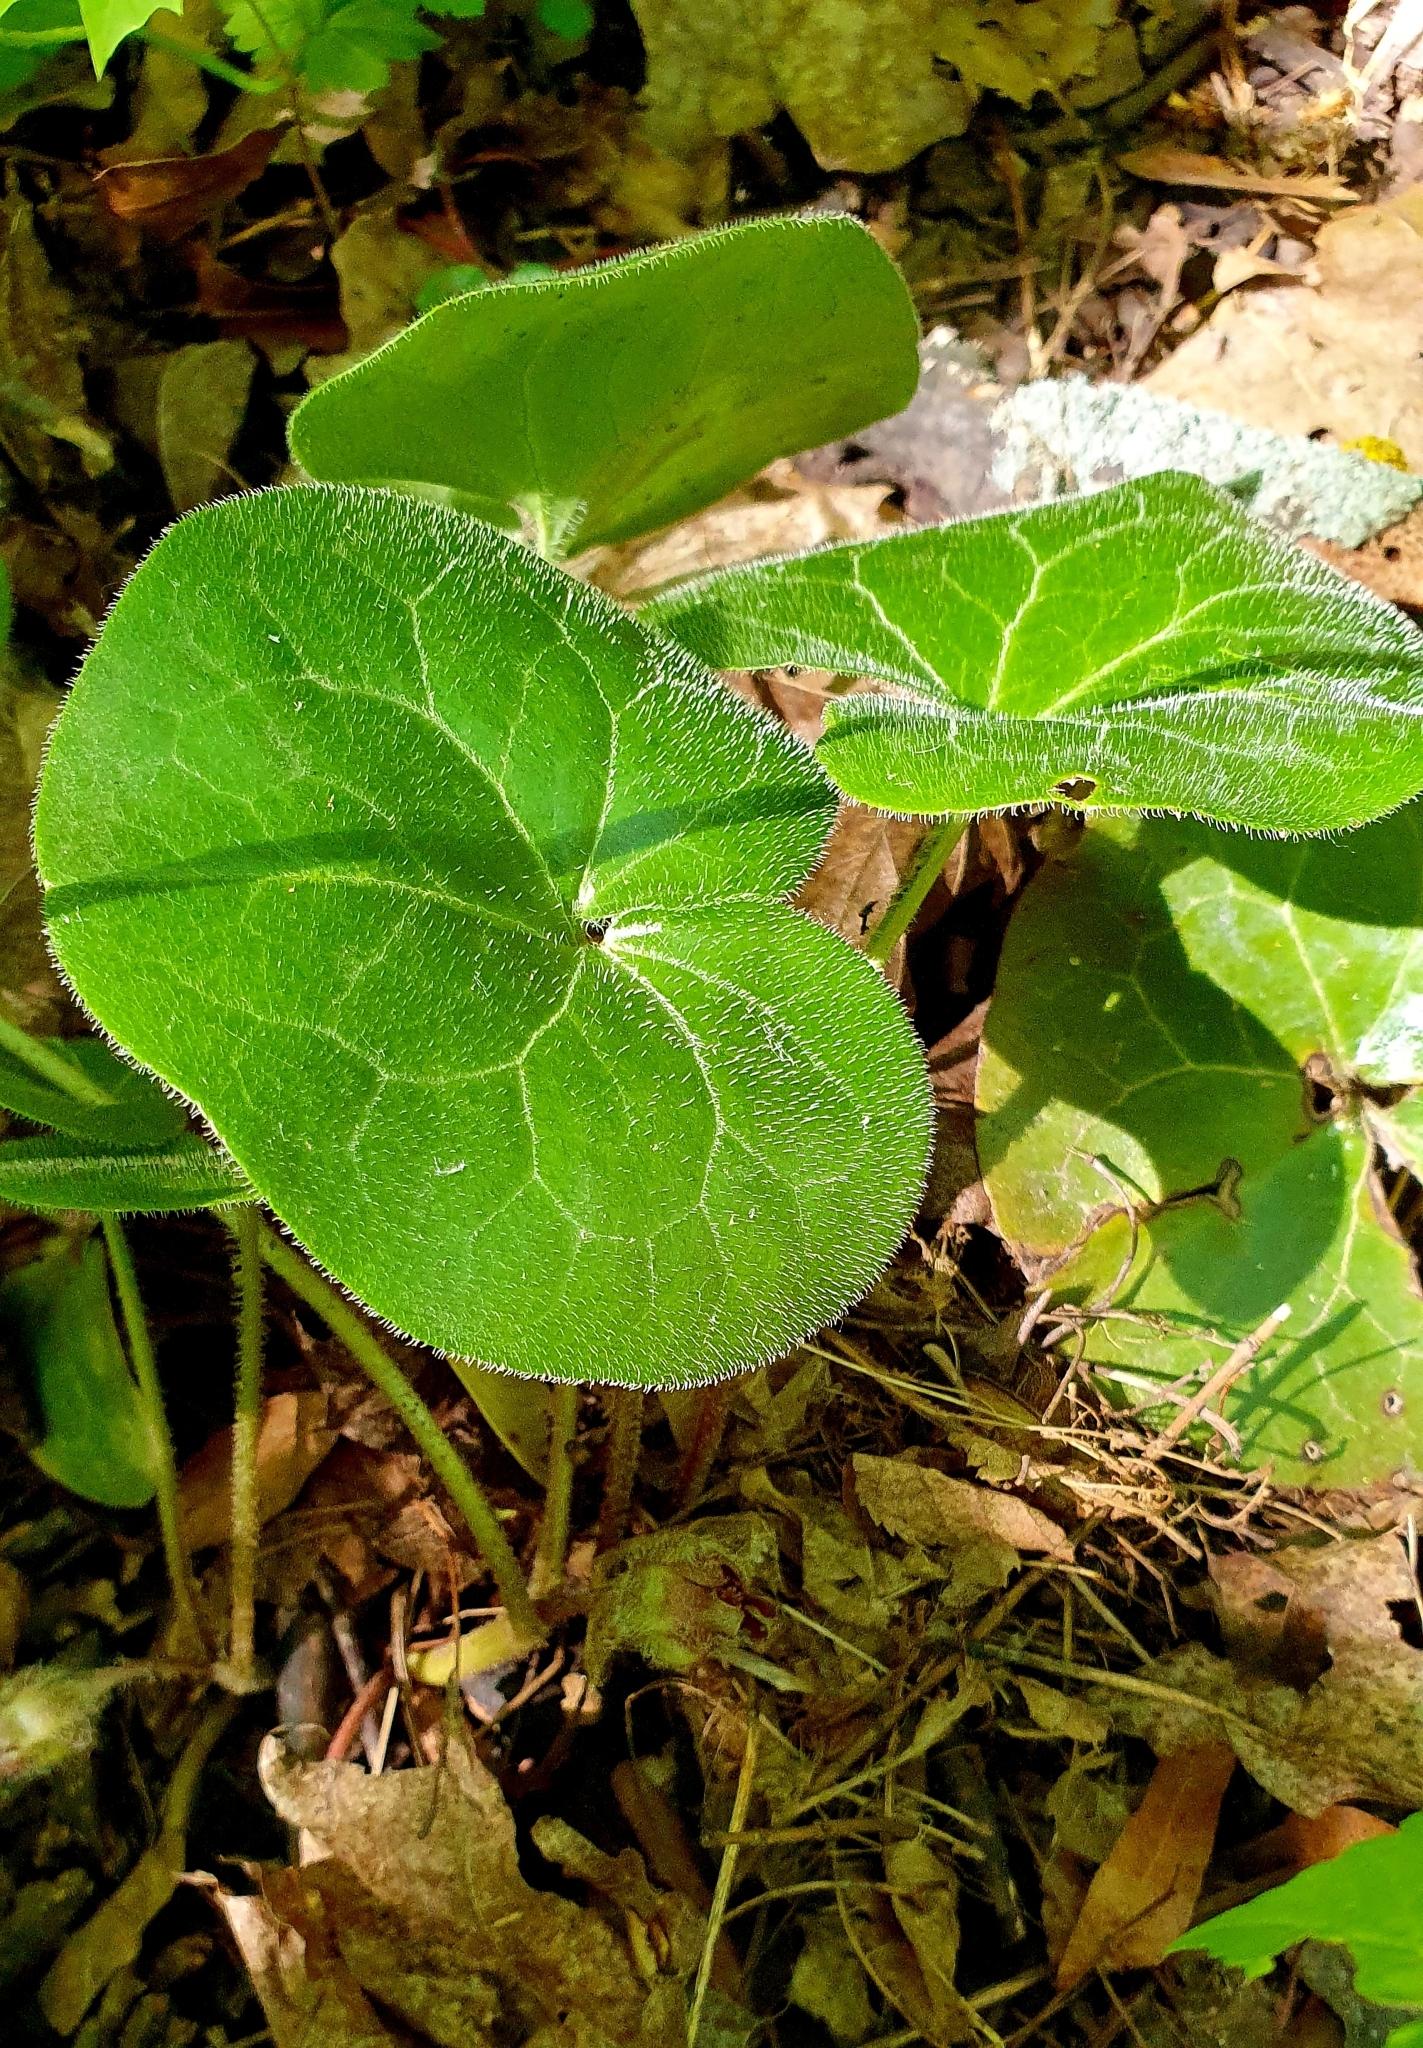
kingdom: Plantae
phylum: Tracheophyta
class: Magnoliopsida
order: Piperales
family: Aristolochiaceae
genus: Asarum
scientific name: Asarum europaeum
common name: Asarabacca
